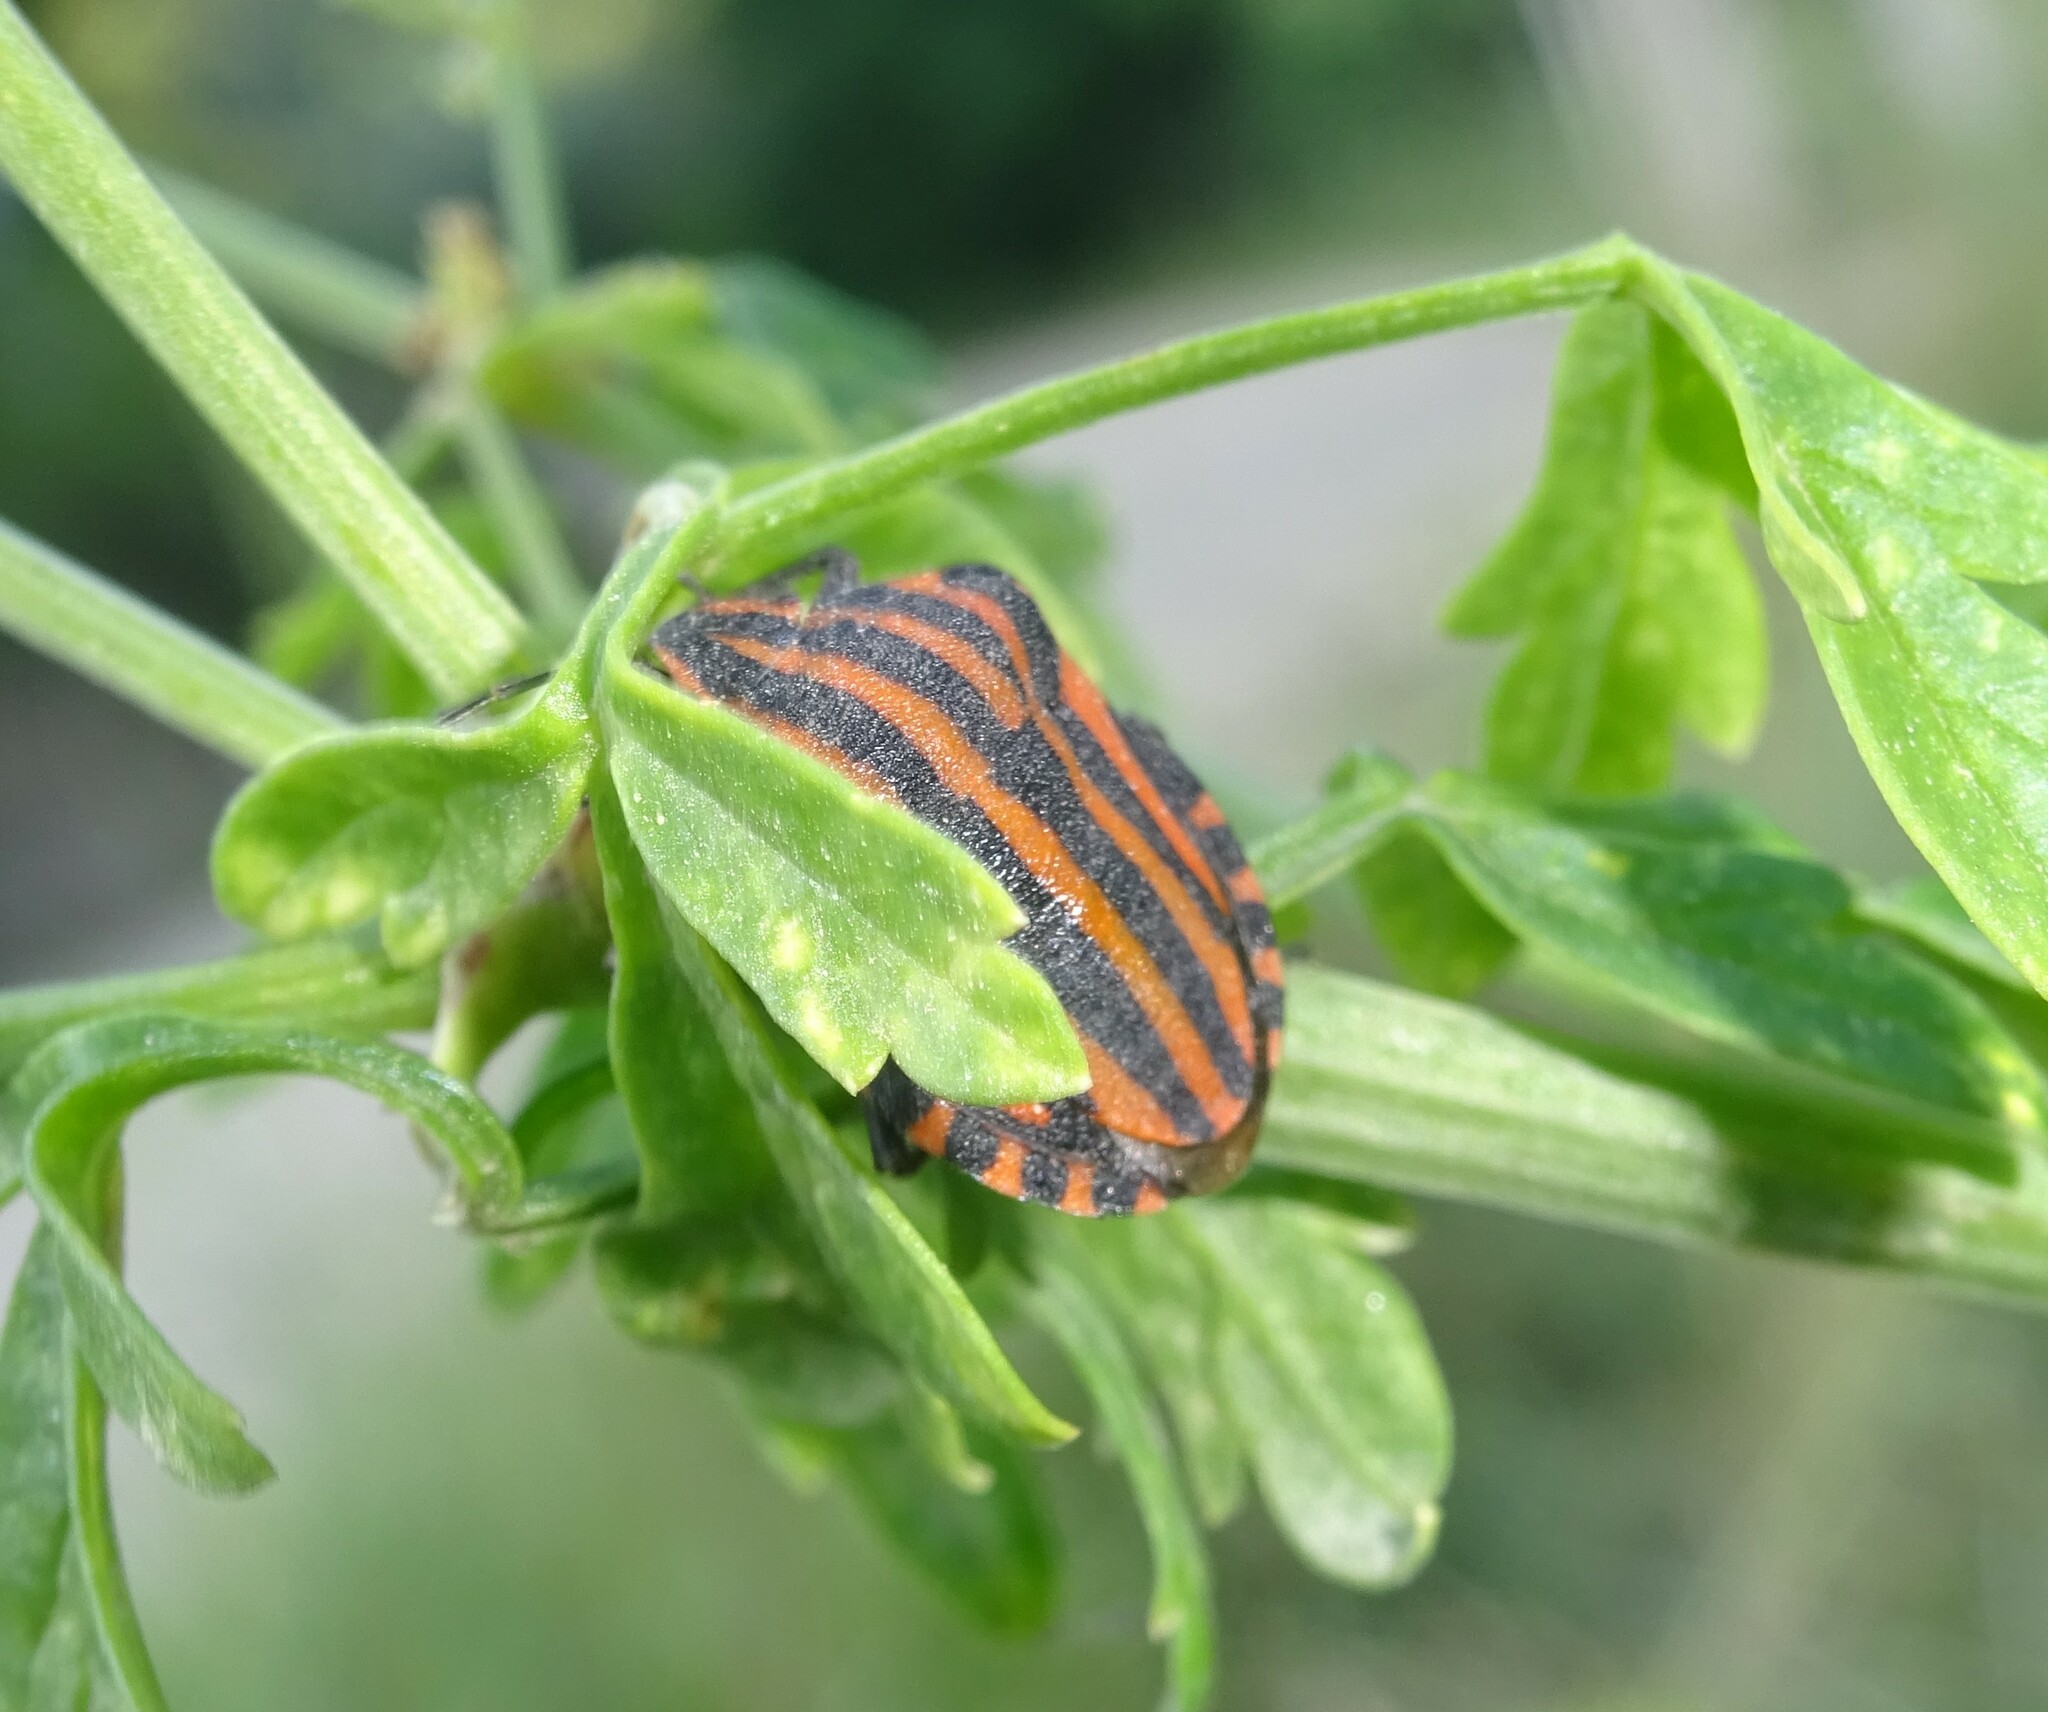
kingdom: Animalia
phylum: Arthropoda
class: Insecta
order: Hemiptera
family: Pentatomidae
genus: Graphosoma
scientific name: Graphosoma italicum
